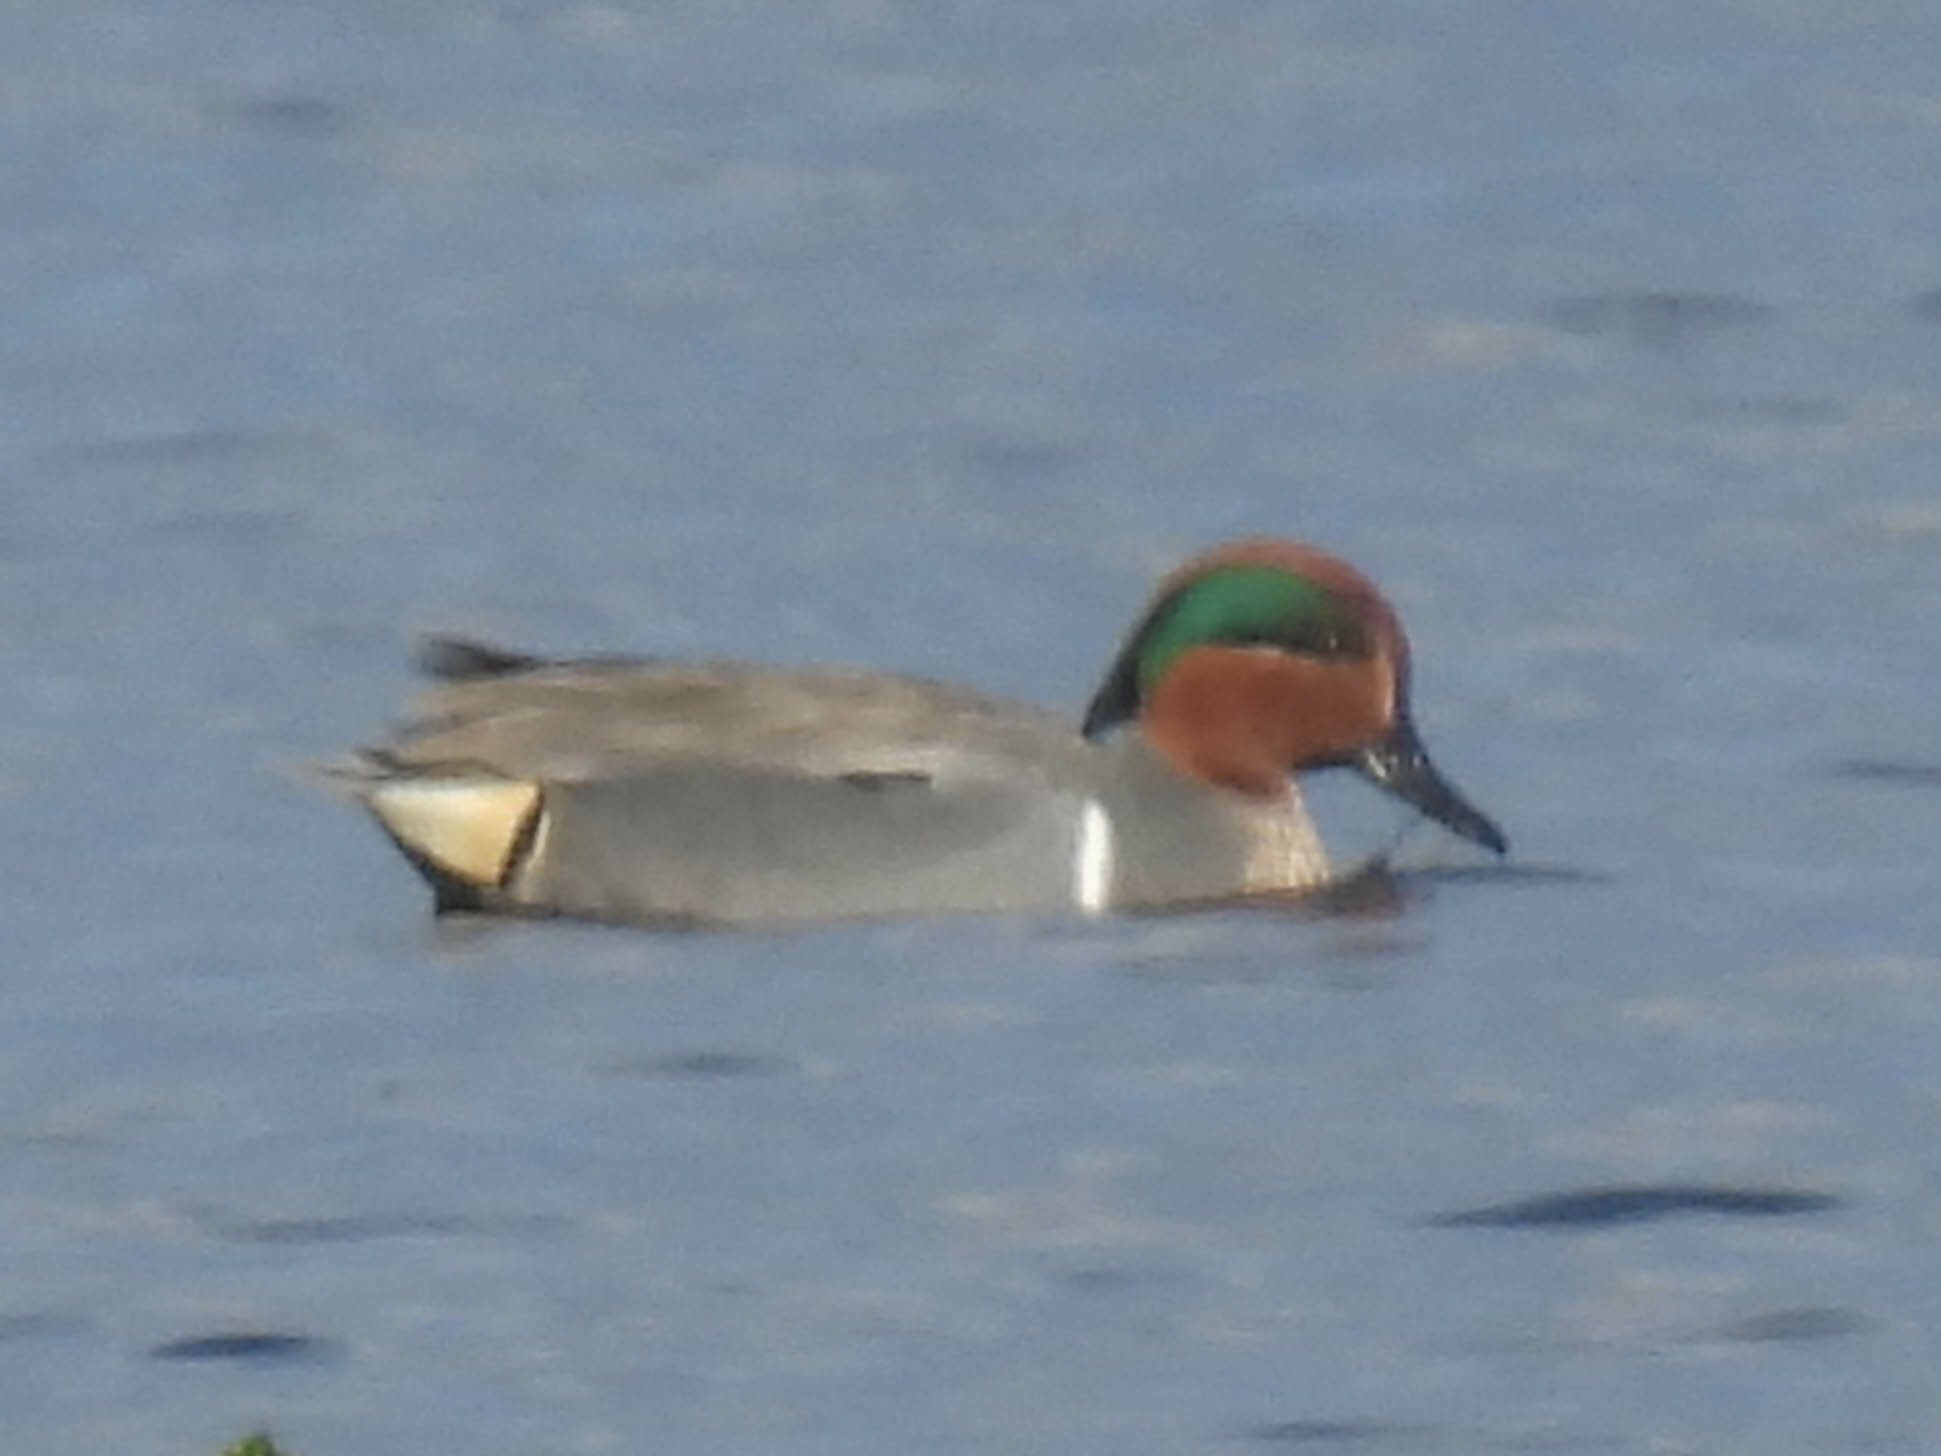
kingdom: Animalia
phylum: Chordata
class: Aves
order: Anseriformes
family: Anatidae
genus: Anas
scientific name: Anas crecca
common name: Eurasian teal
